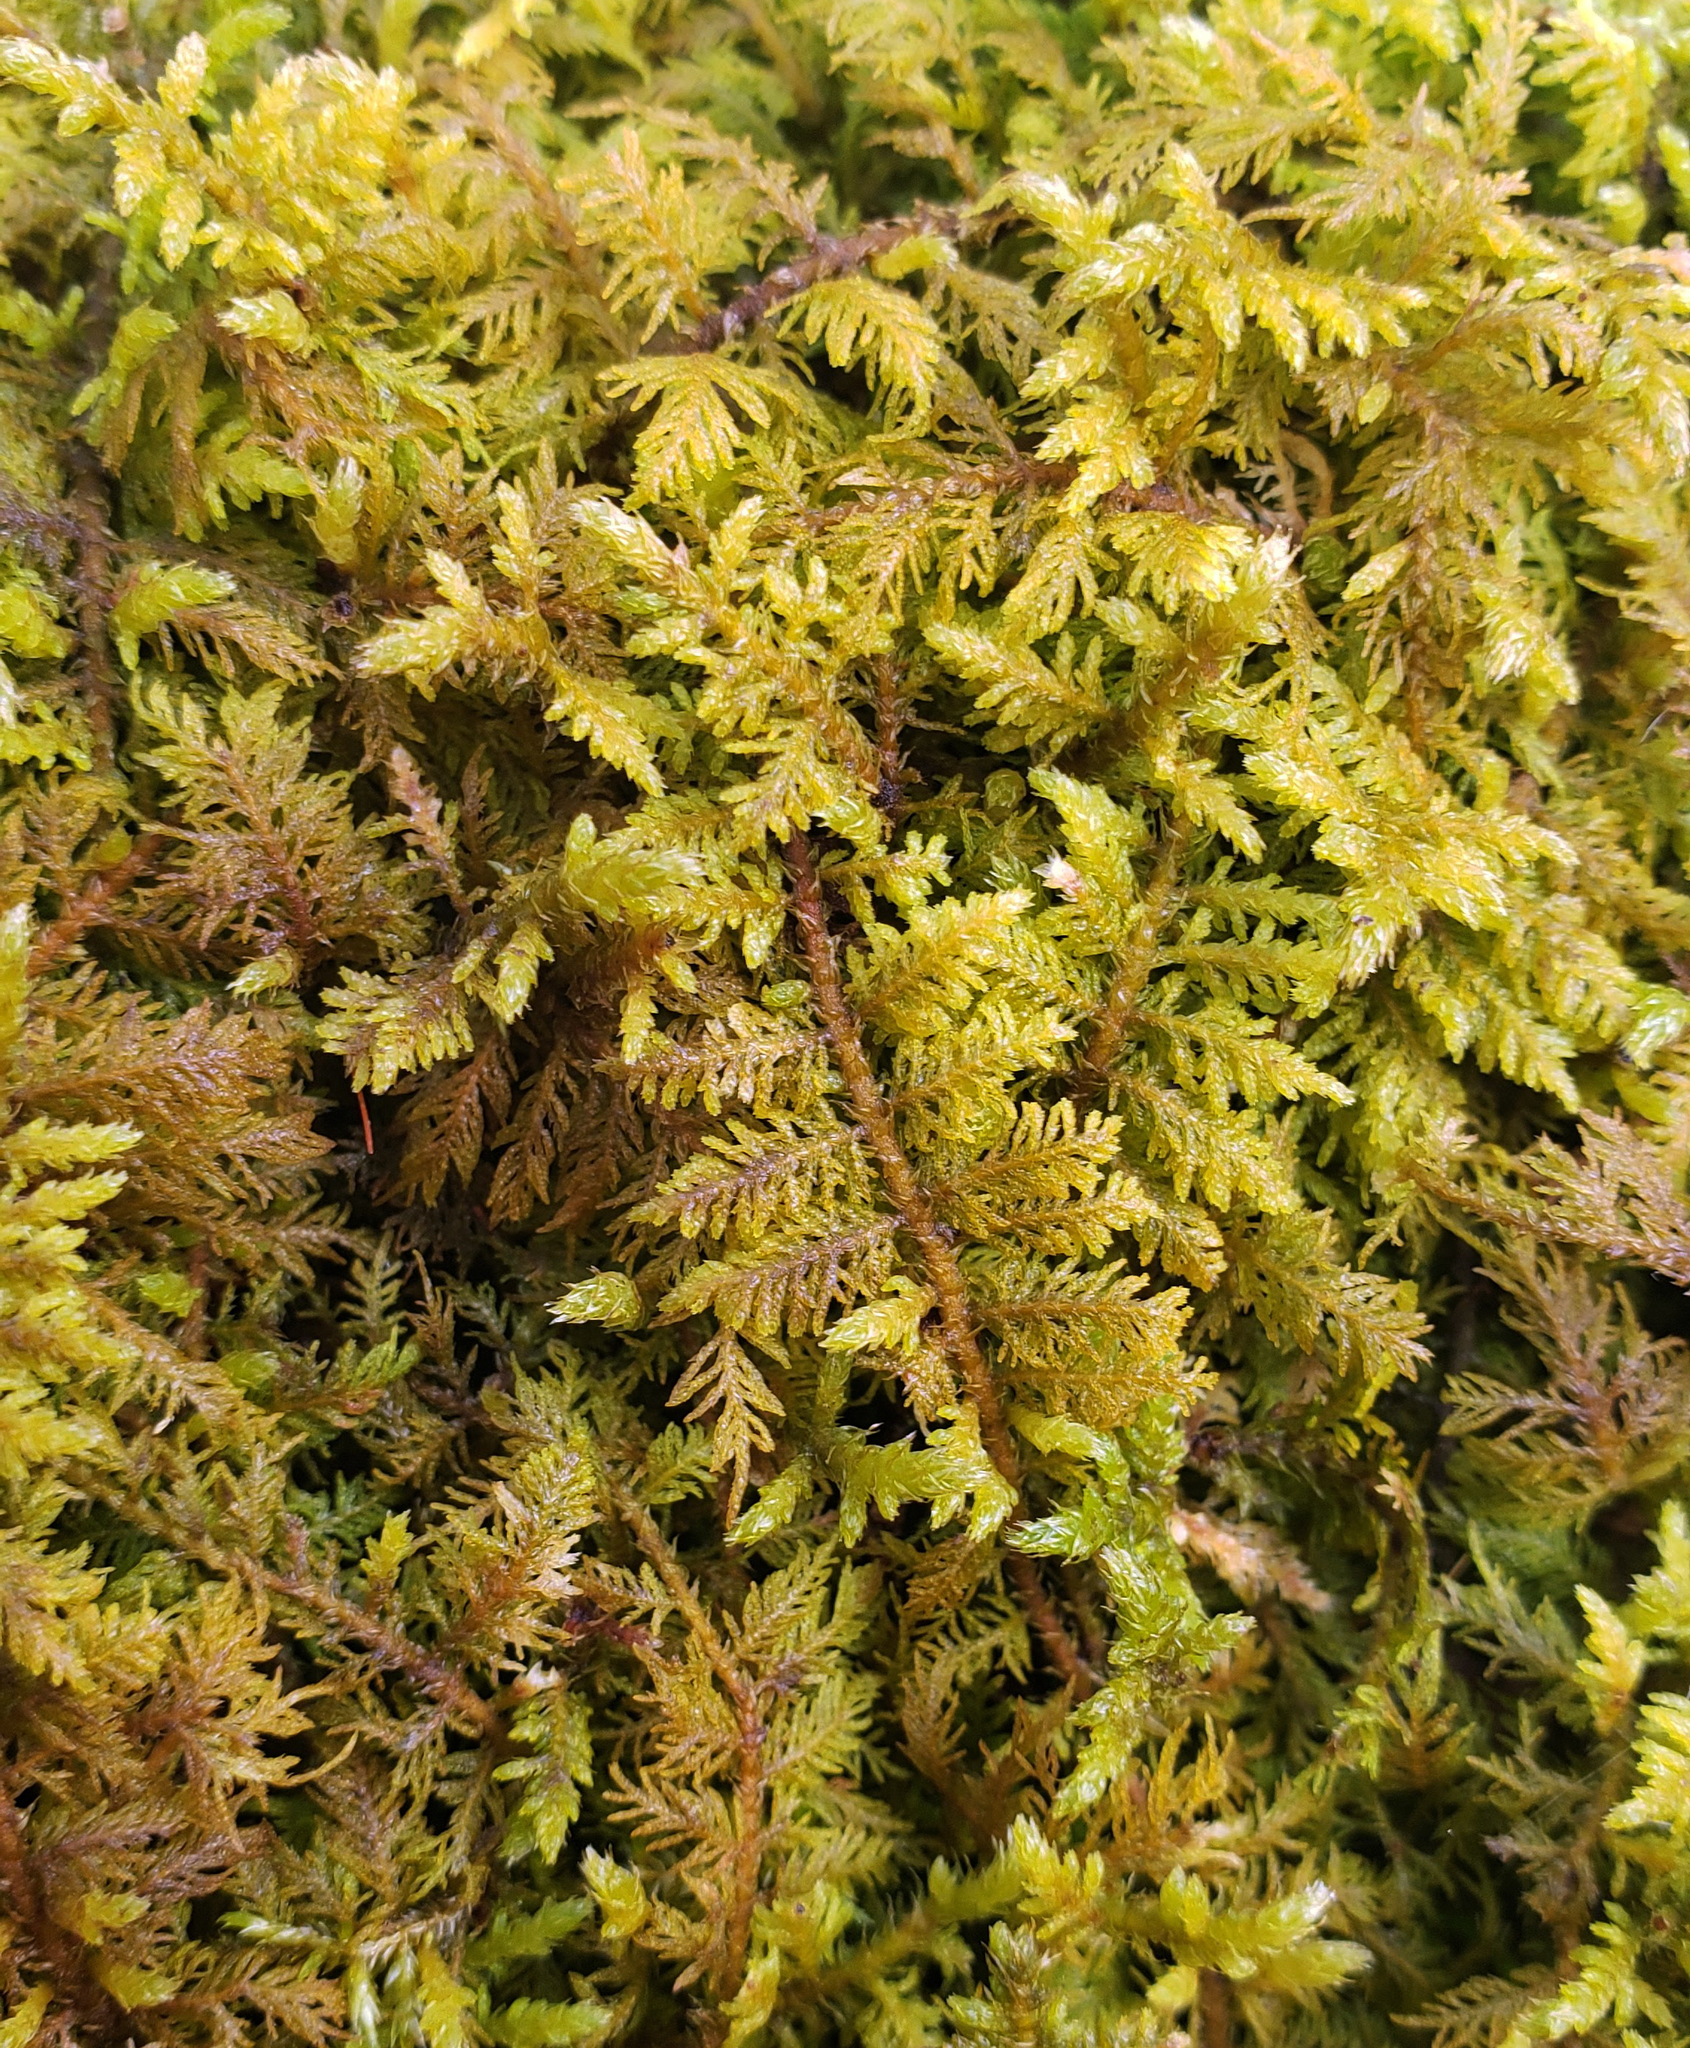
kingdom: Plantae
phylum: Bryophyta
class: Bryopsida
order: Hypnales
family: Thuidiaceae
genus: Thuidium
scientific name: Thuidium delicatulum
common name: Delicate fern moss
